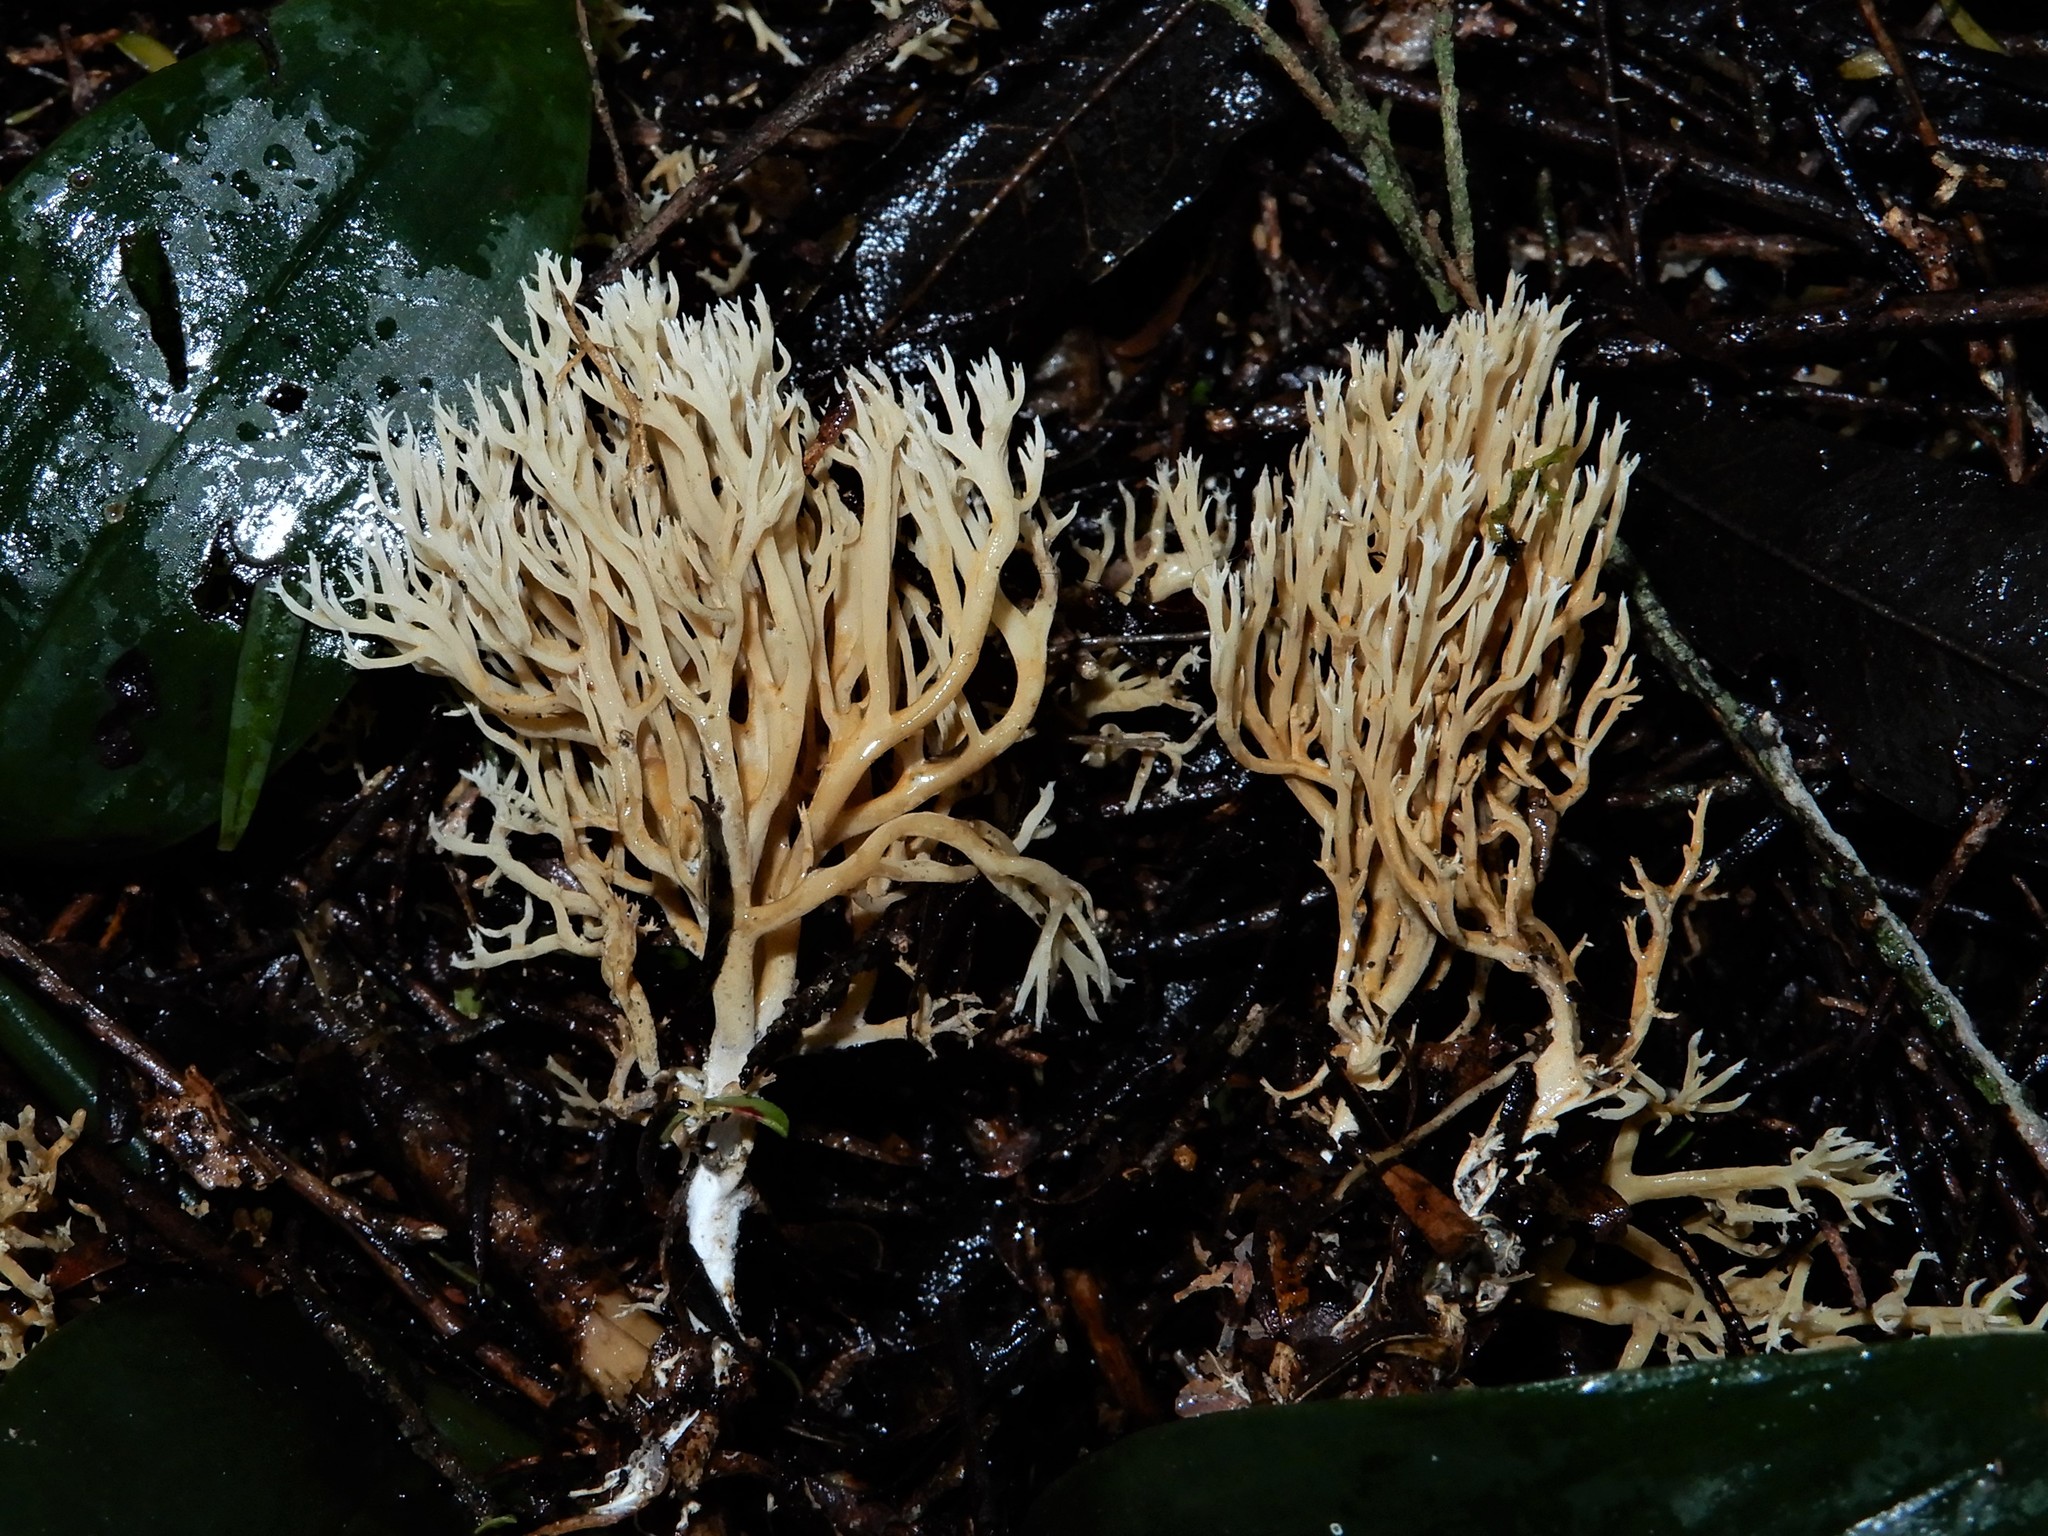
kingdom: Fungi
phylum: Basidiomycota
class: Agaricomycetes
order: Gomphales
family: Gomphaceae
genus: Phaeoclavulina
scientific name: Phaeoclavulina
